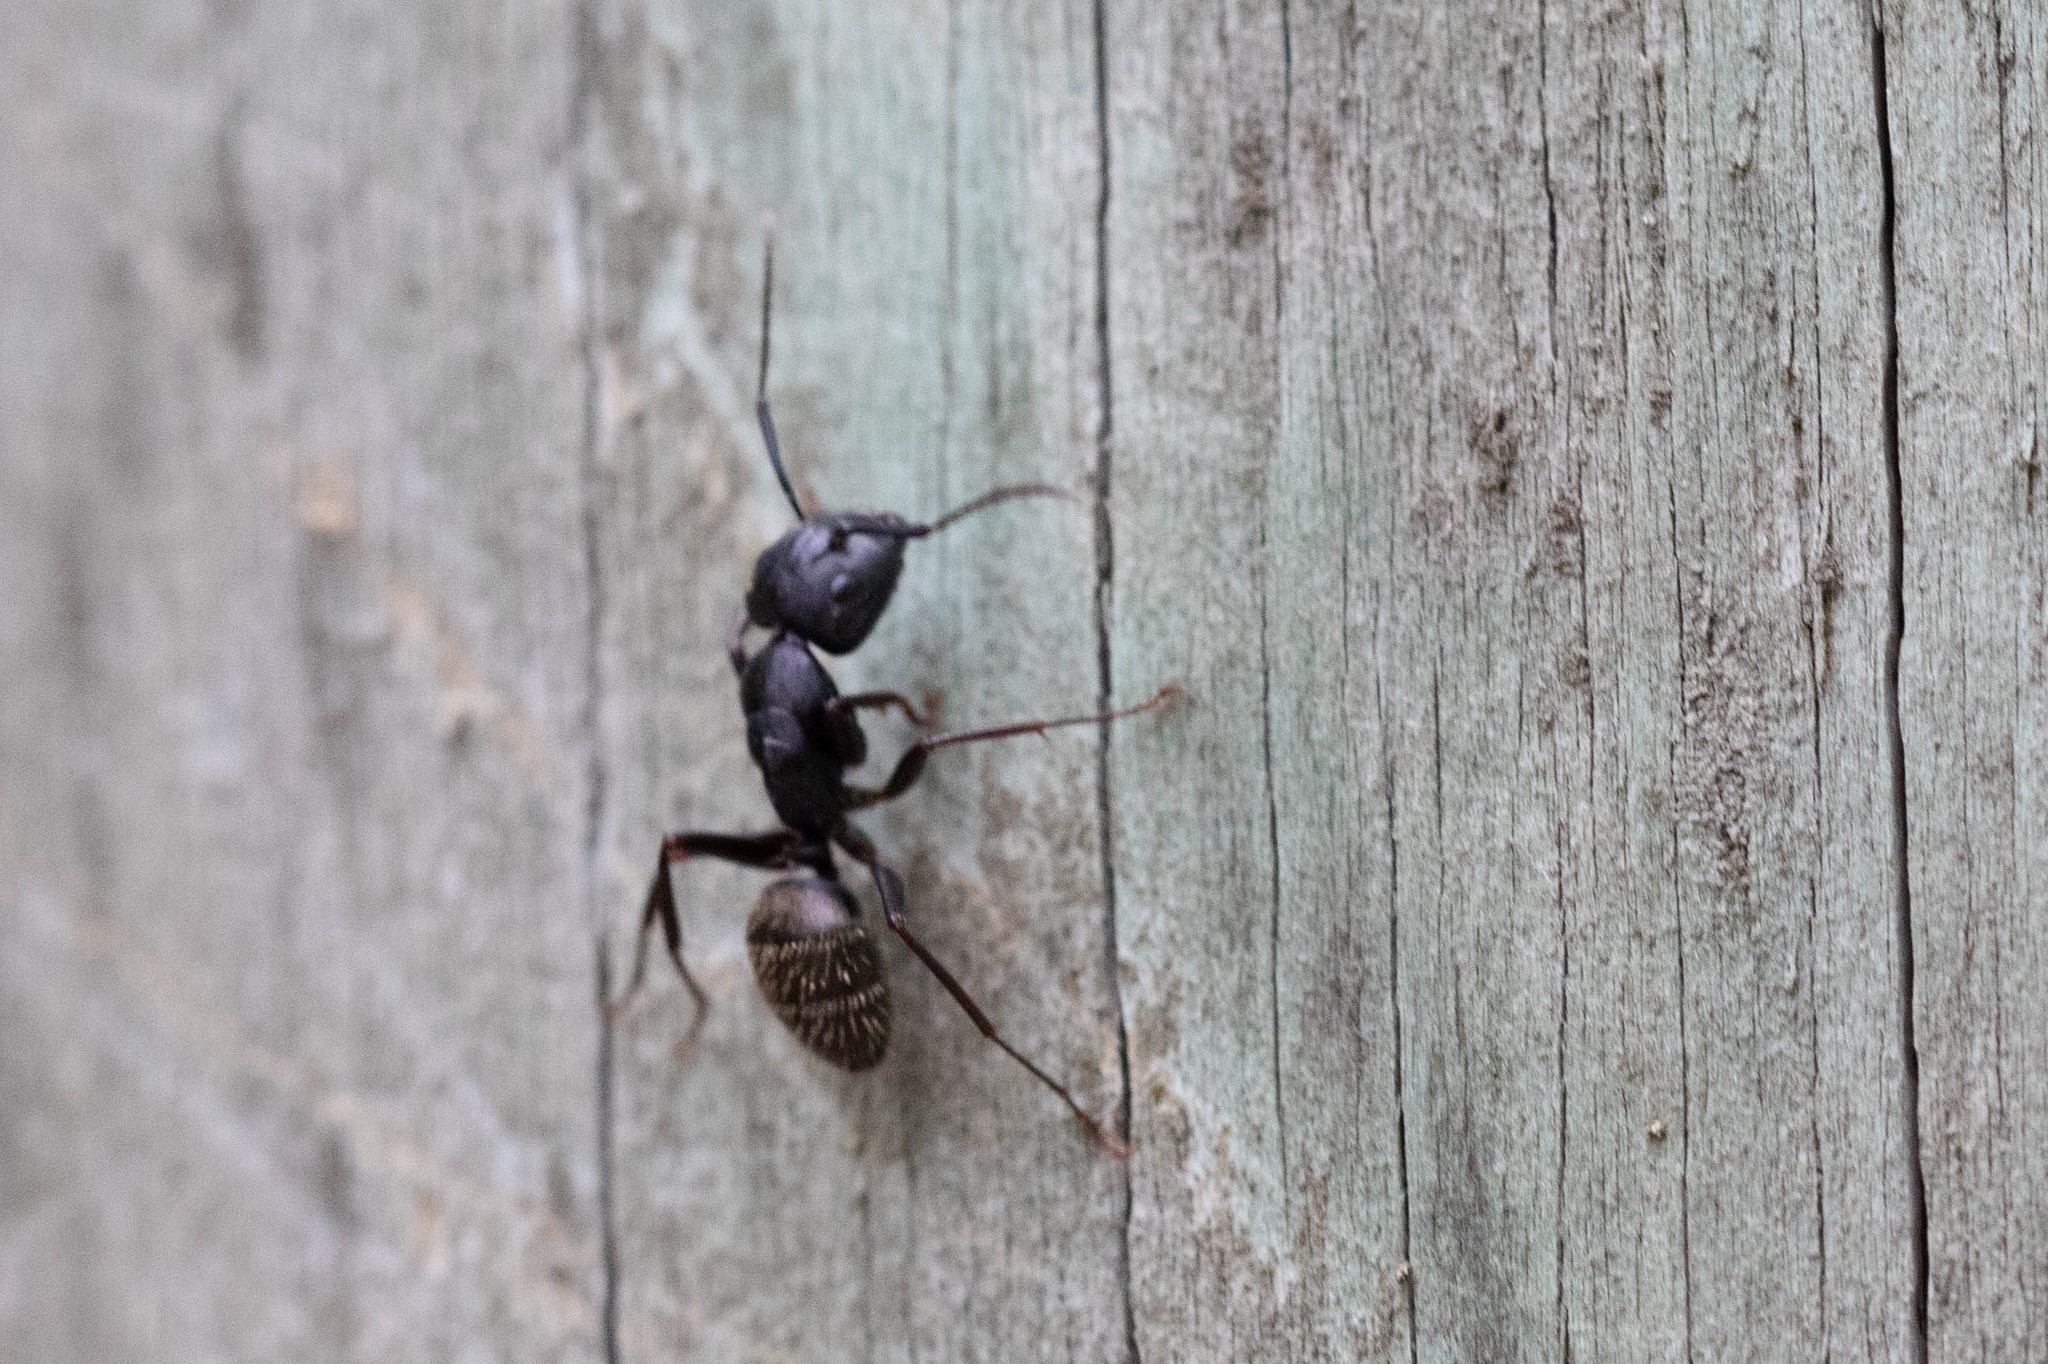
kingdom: Animalia
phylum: Arthropoda
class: Insecta
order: Hymenoptera
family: Formicidae
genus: Camponotus
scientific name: Camponotus pennsylvanicus
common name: Black carpenter ant
